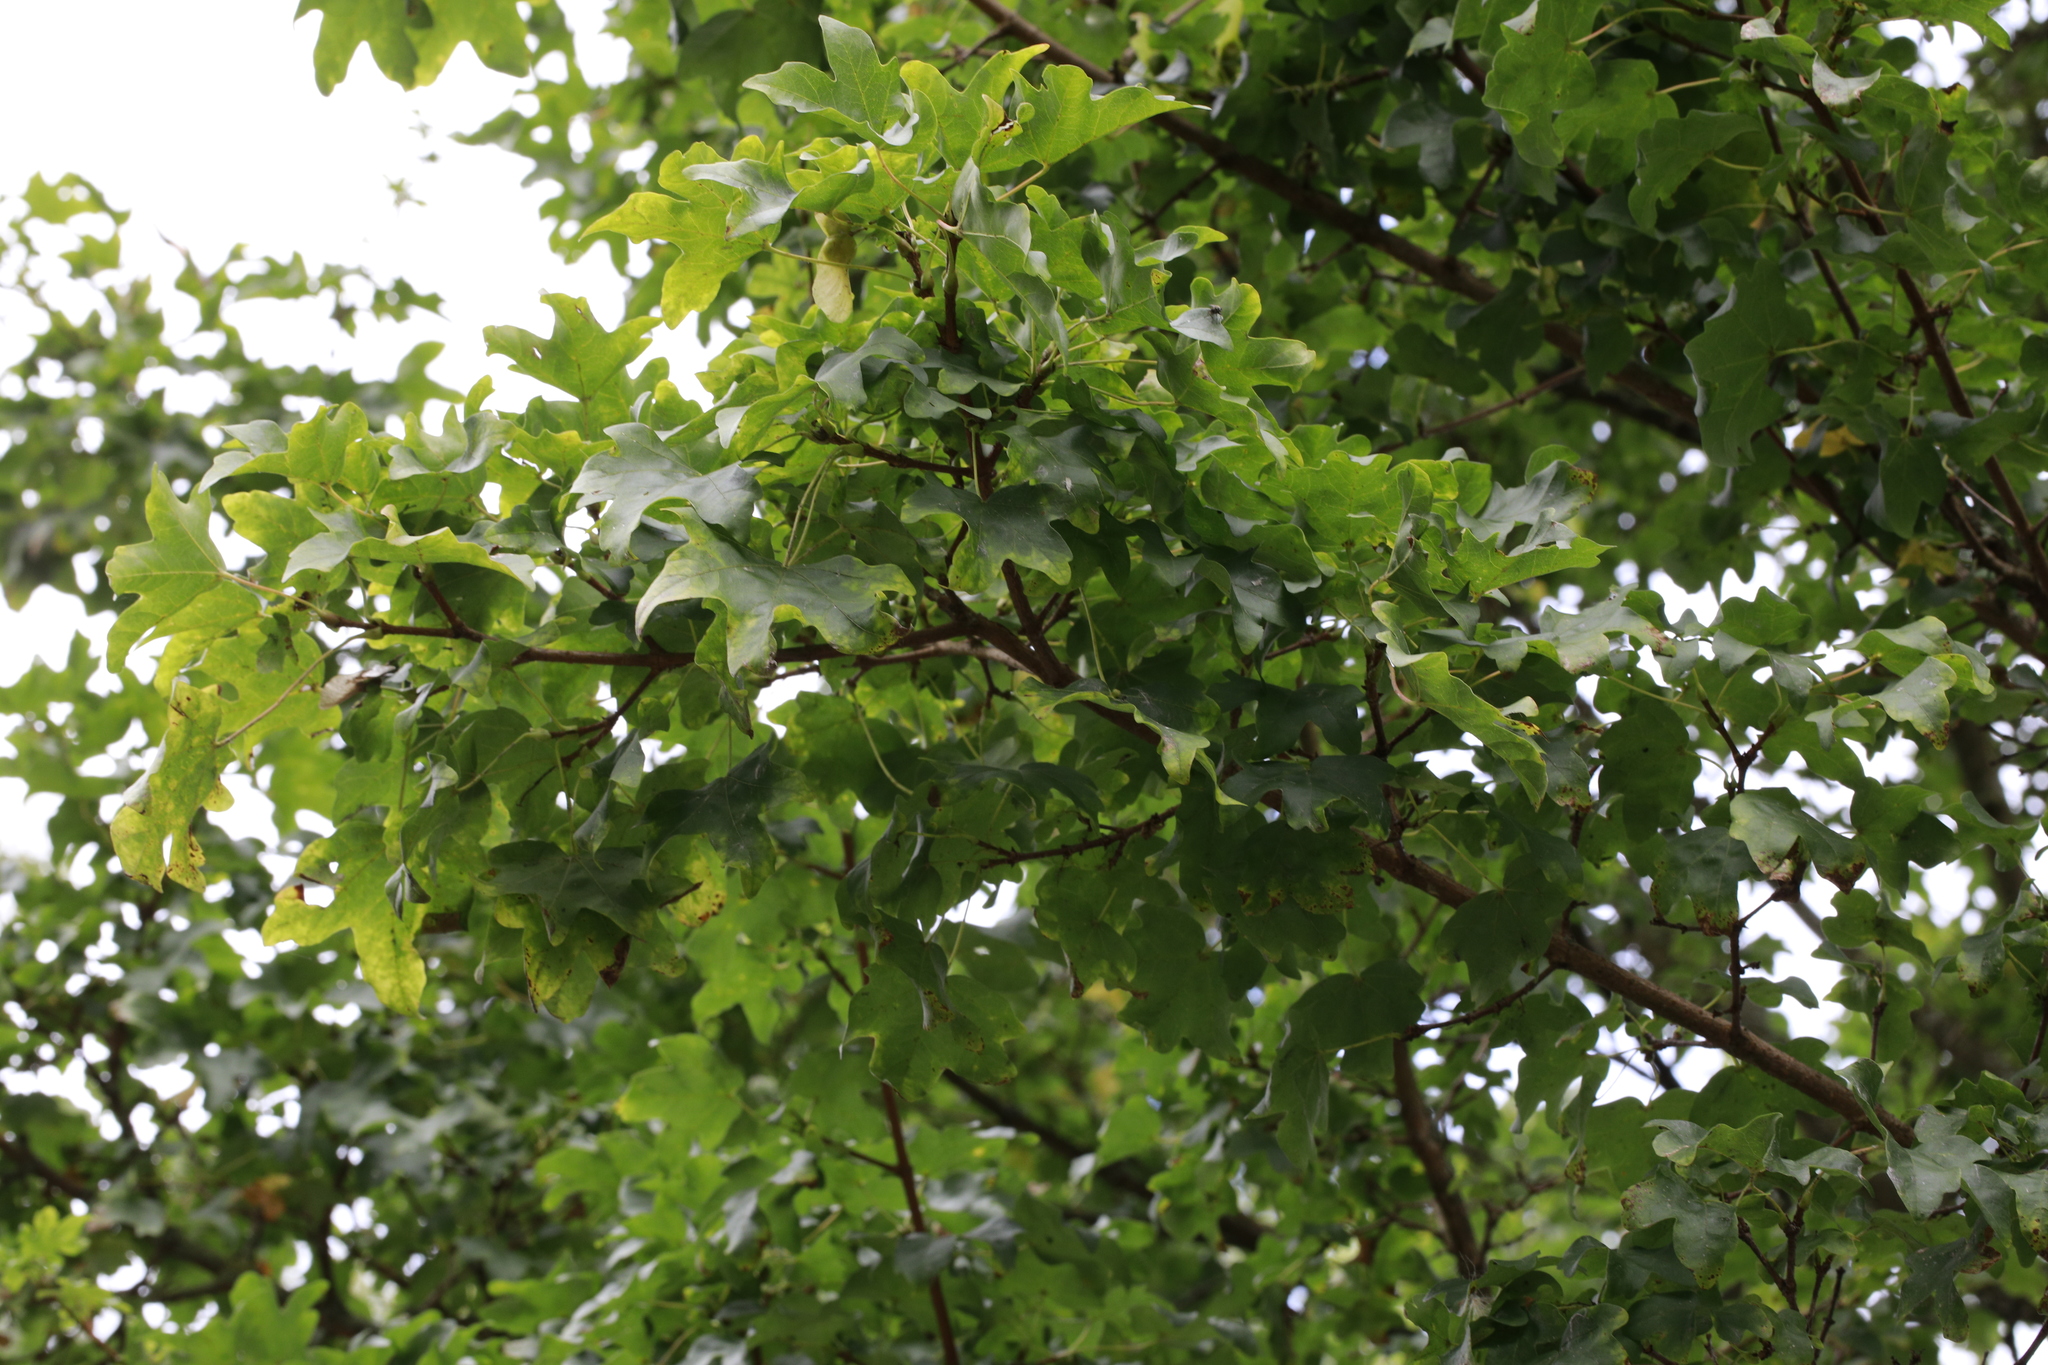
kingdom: Plantae
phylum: Tracheophyta
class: Magnoliopsida
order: Sapindales
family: Sapindaceae
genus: Acer
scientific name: Acer campestre
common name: Field maple
